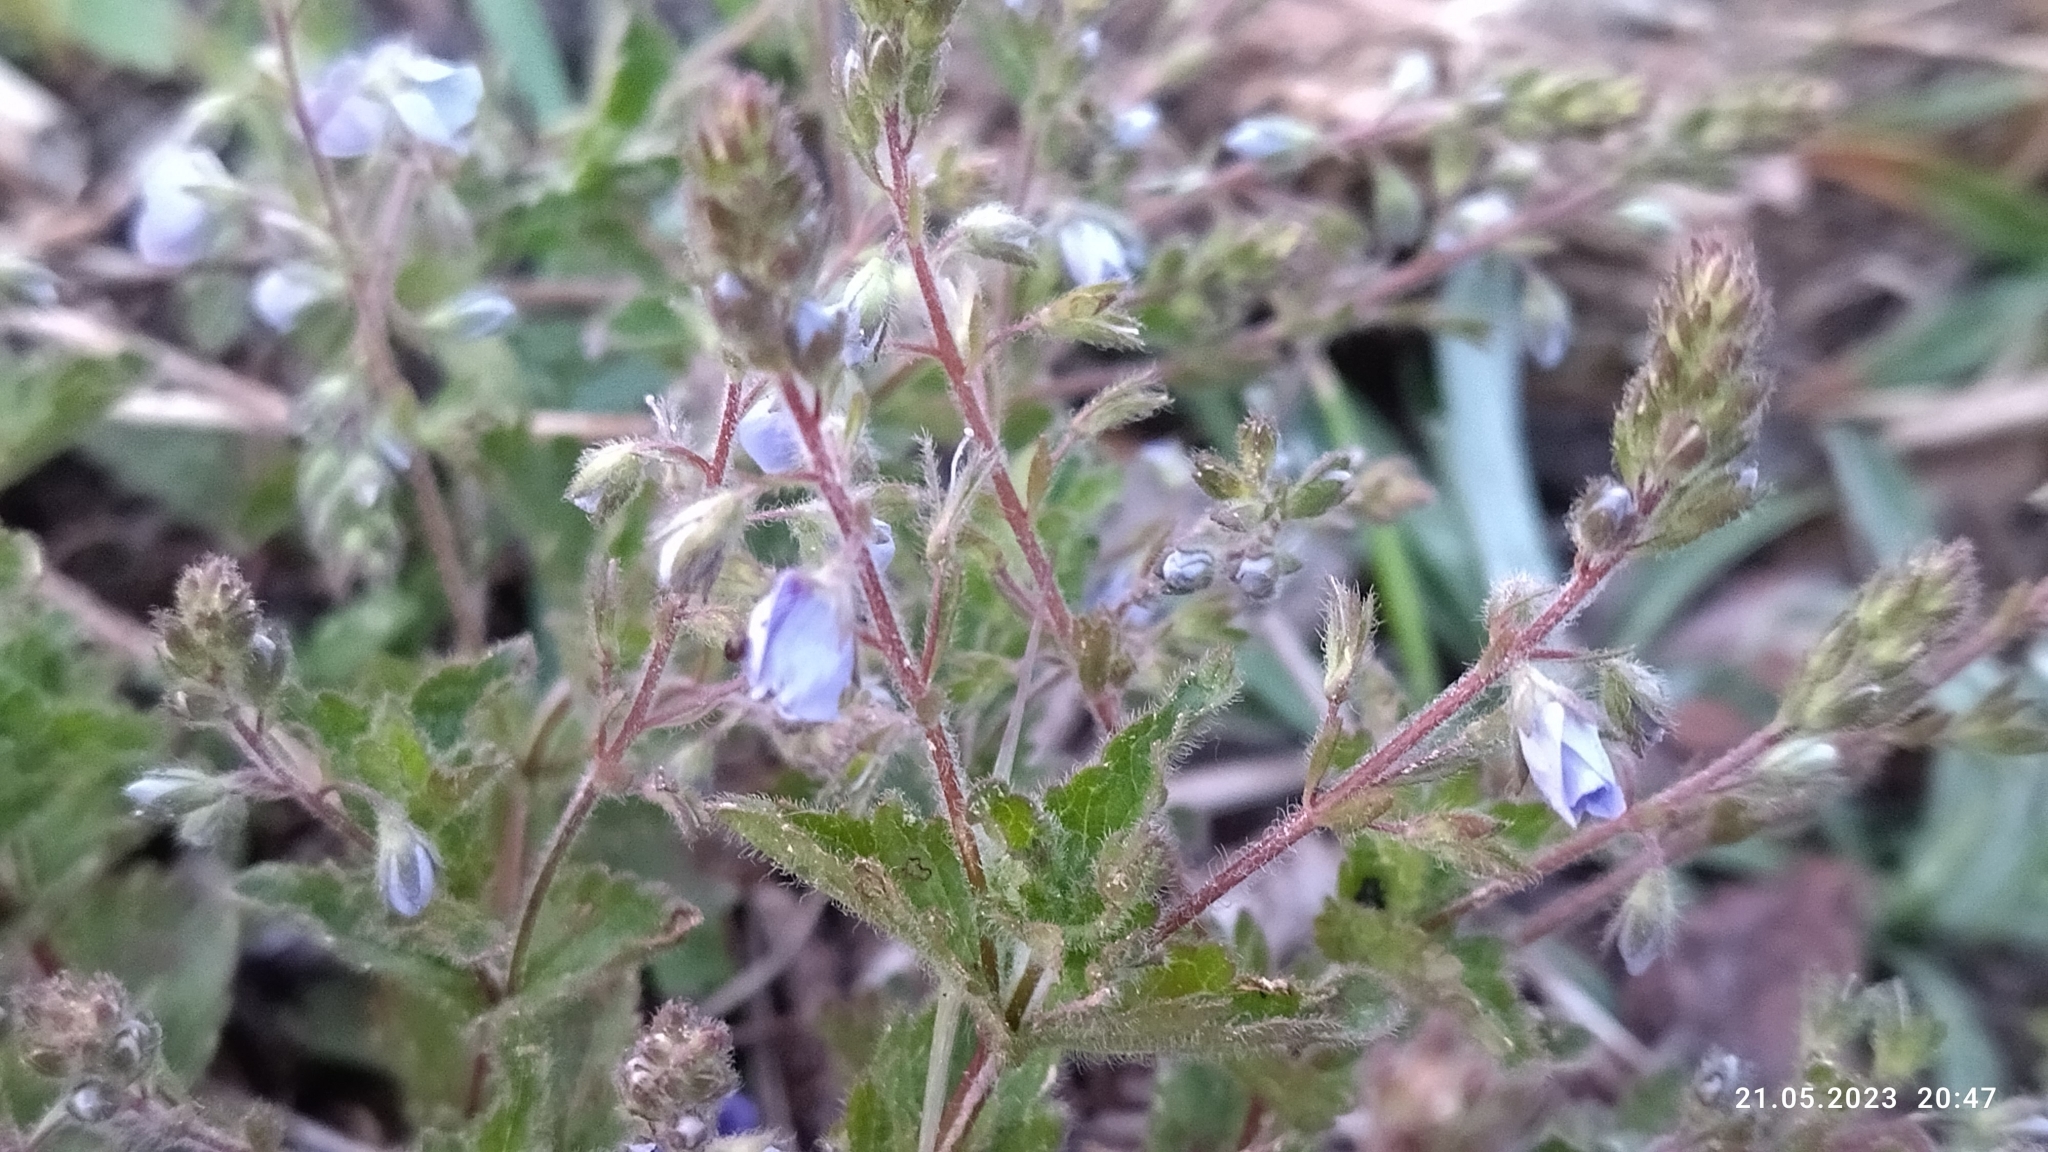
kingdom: Plantae
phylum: Tracheophyta
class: Magnoliopsida
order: Lamiales
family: Plantaginaceae
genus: Veronica
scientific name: Veronica chamaedrys
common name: Germander speedwell
